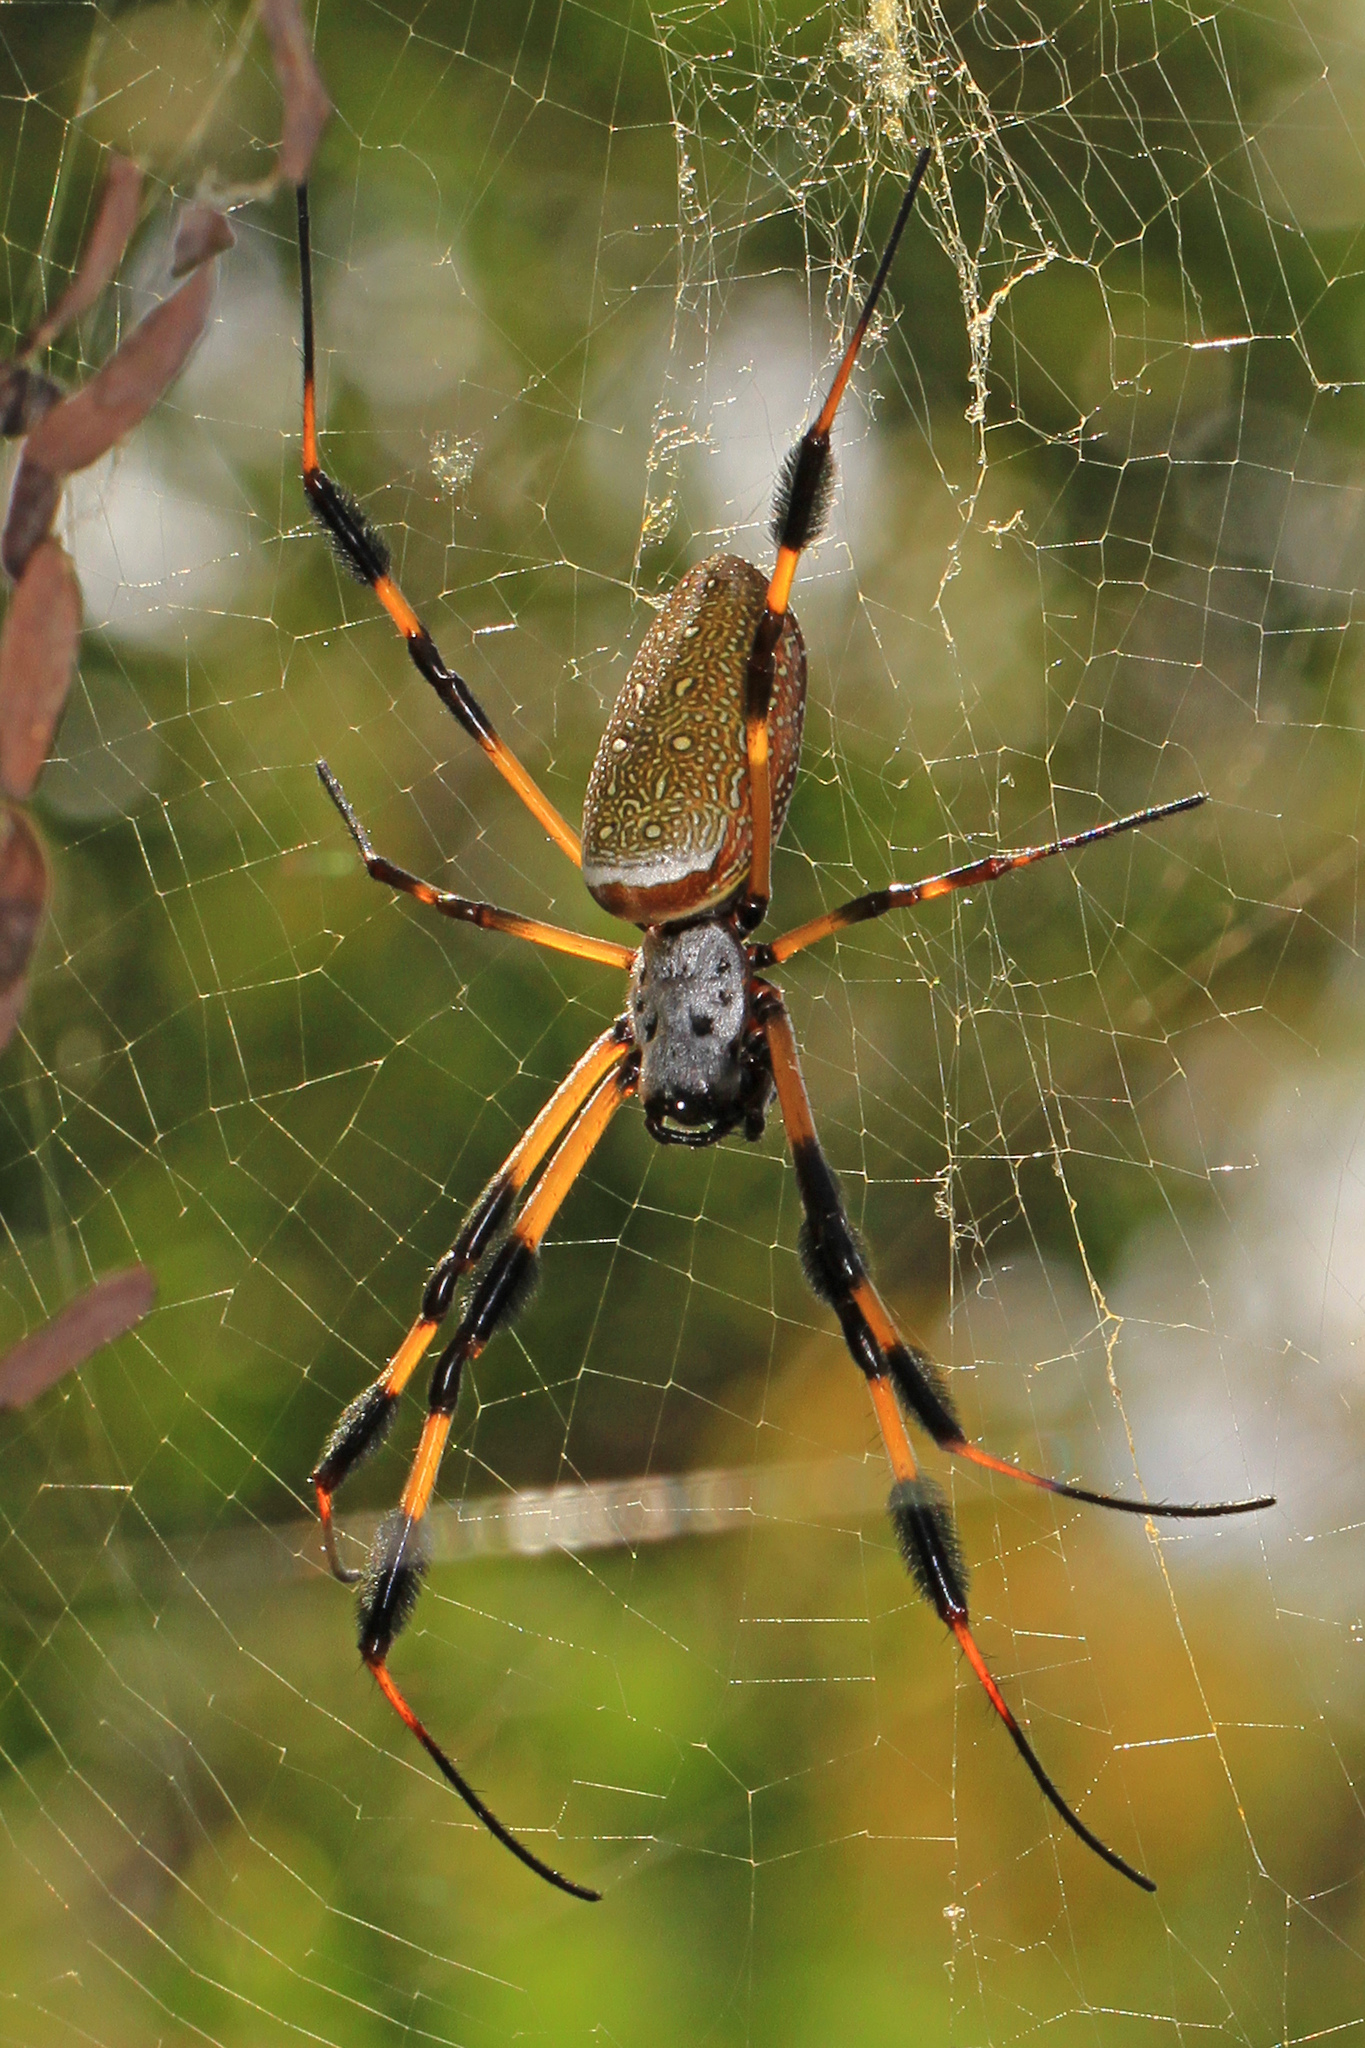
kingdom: Animalia
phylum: Arthropoda
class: Arachnida
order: Araneae
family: Araneidae
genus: Trichonephila
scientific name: Trichonephila clavipes
